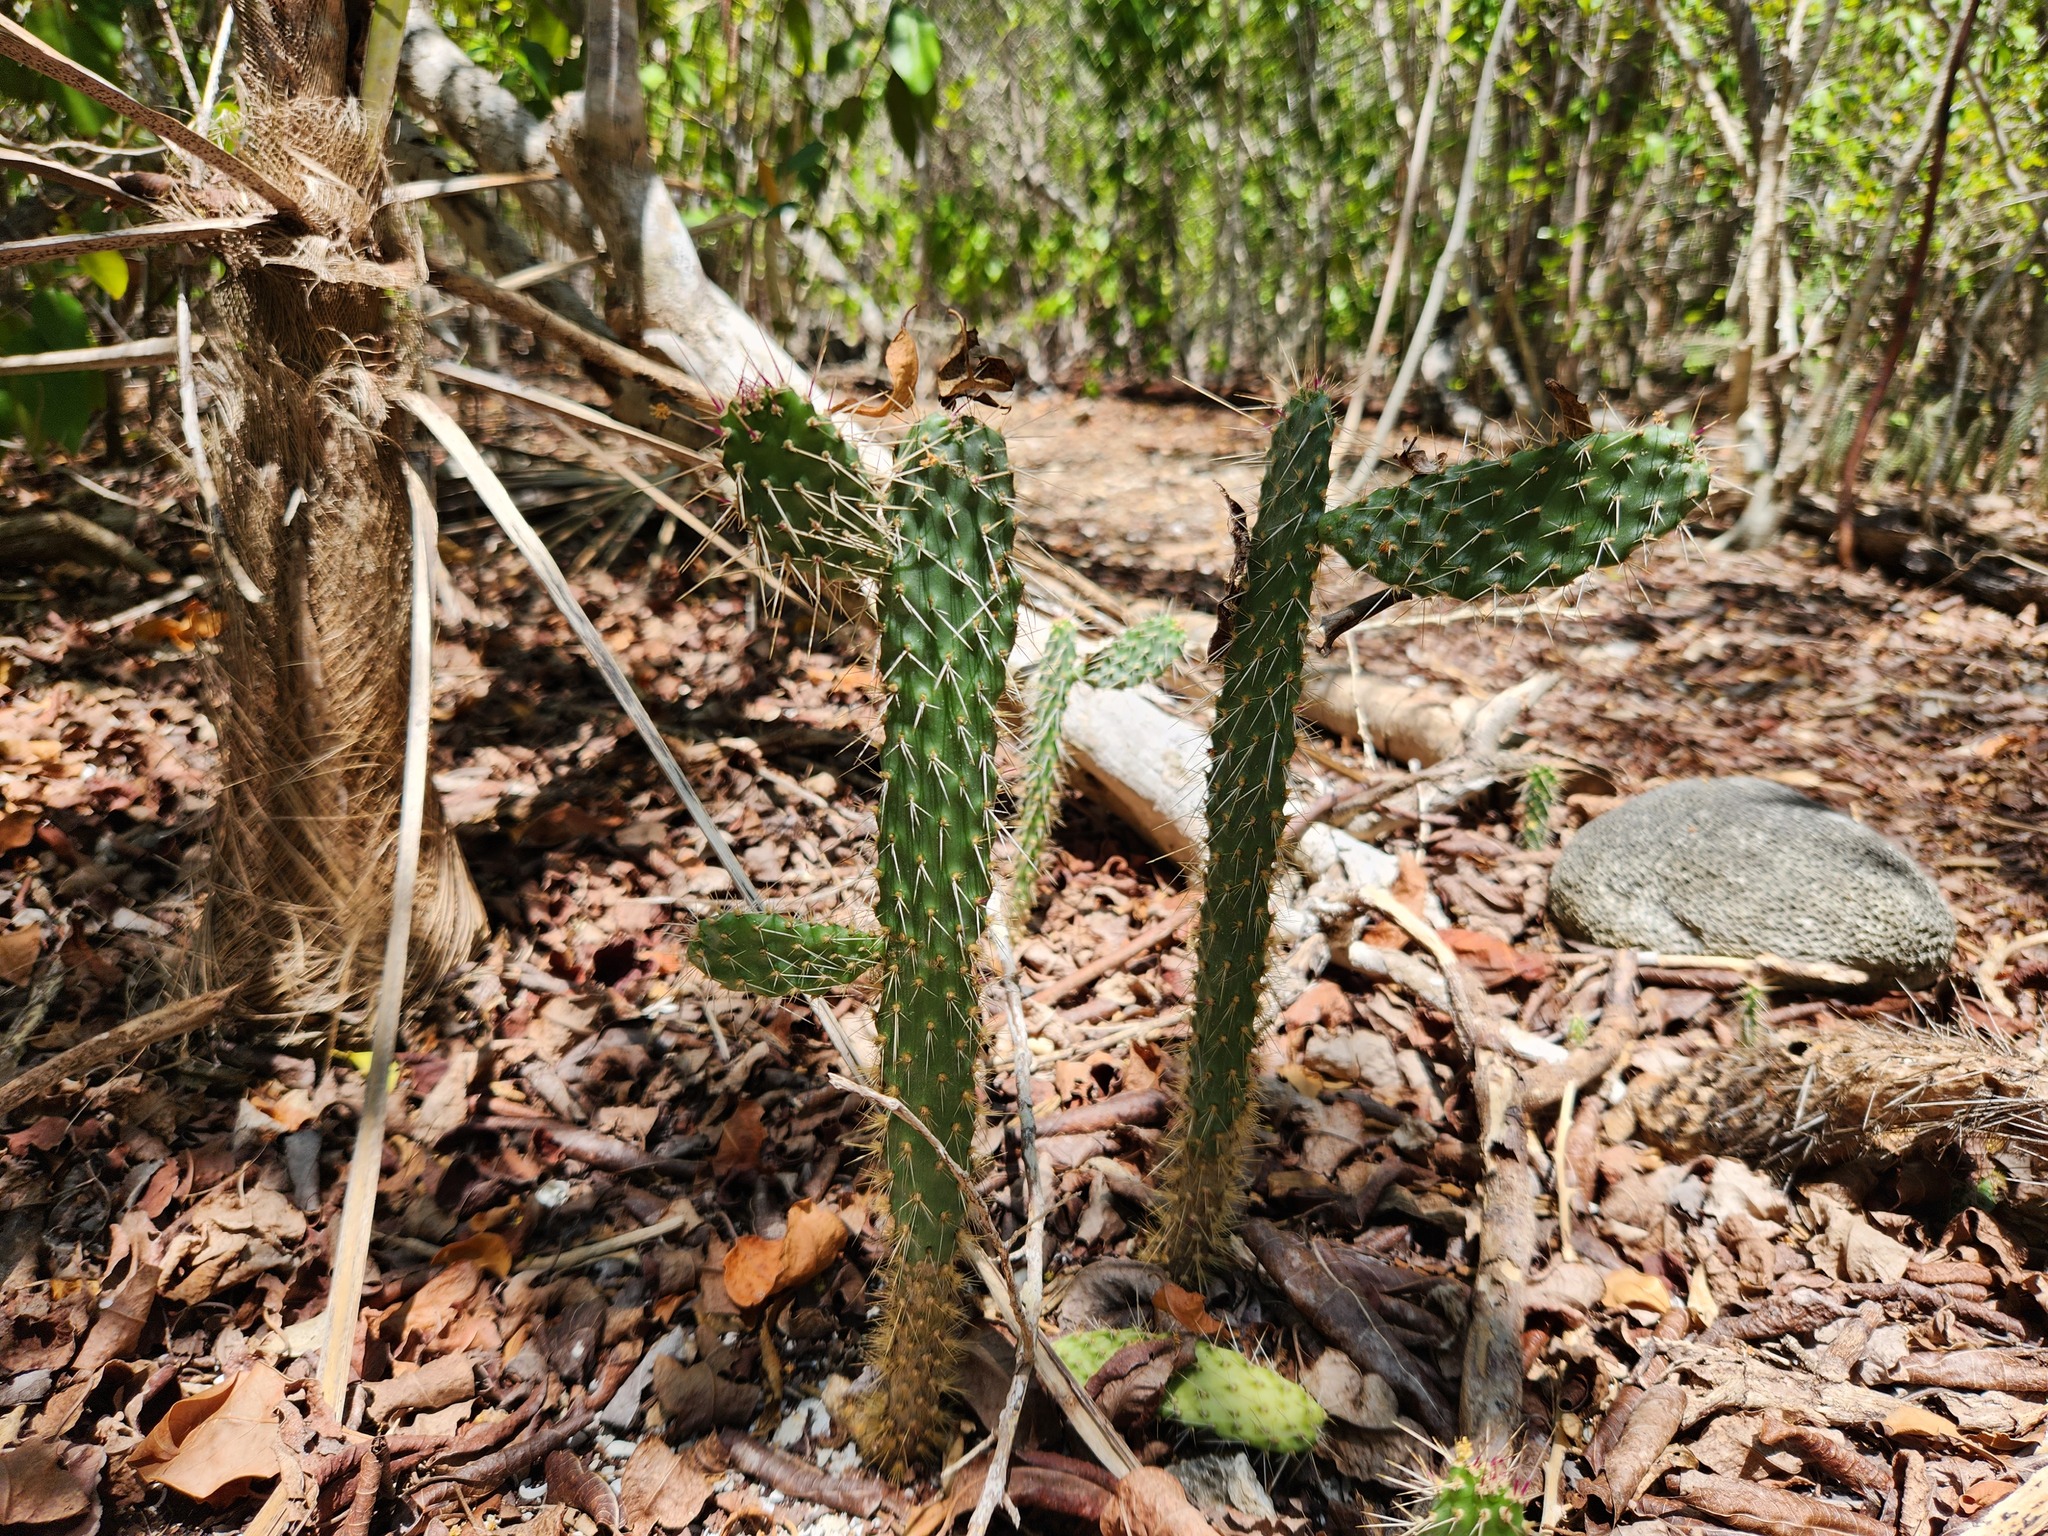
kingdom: Plantae
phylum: Tracheophyta
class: Magnoliopsida
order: Caryophyllales
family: Cactaceae
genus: Consolea
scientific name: Consolea macracantha
